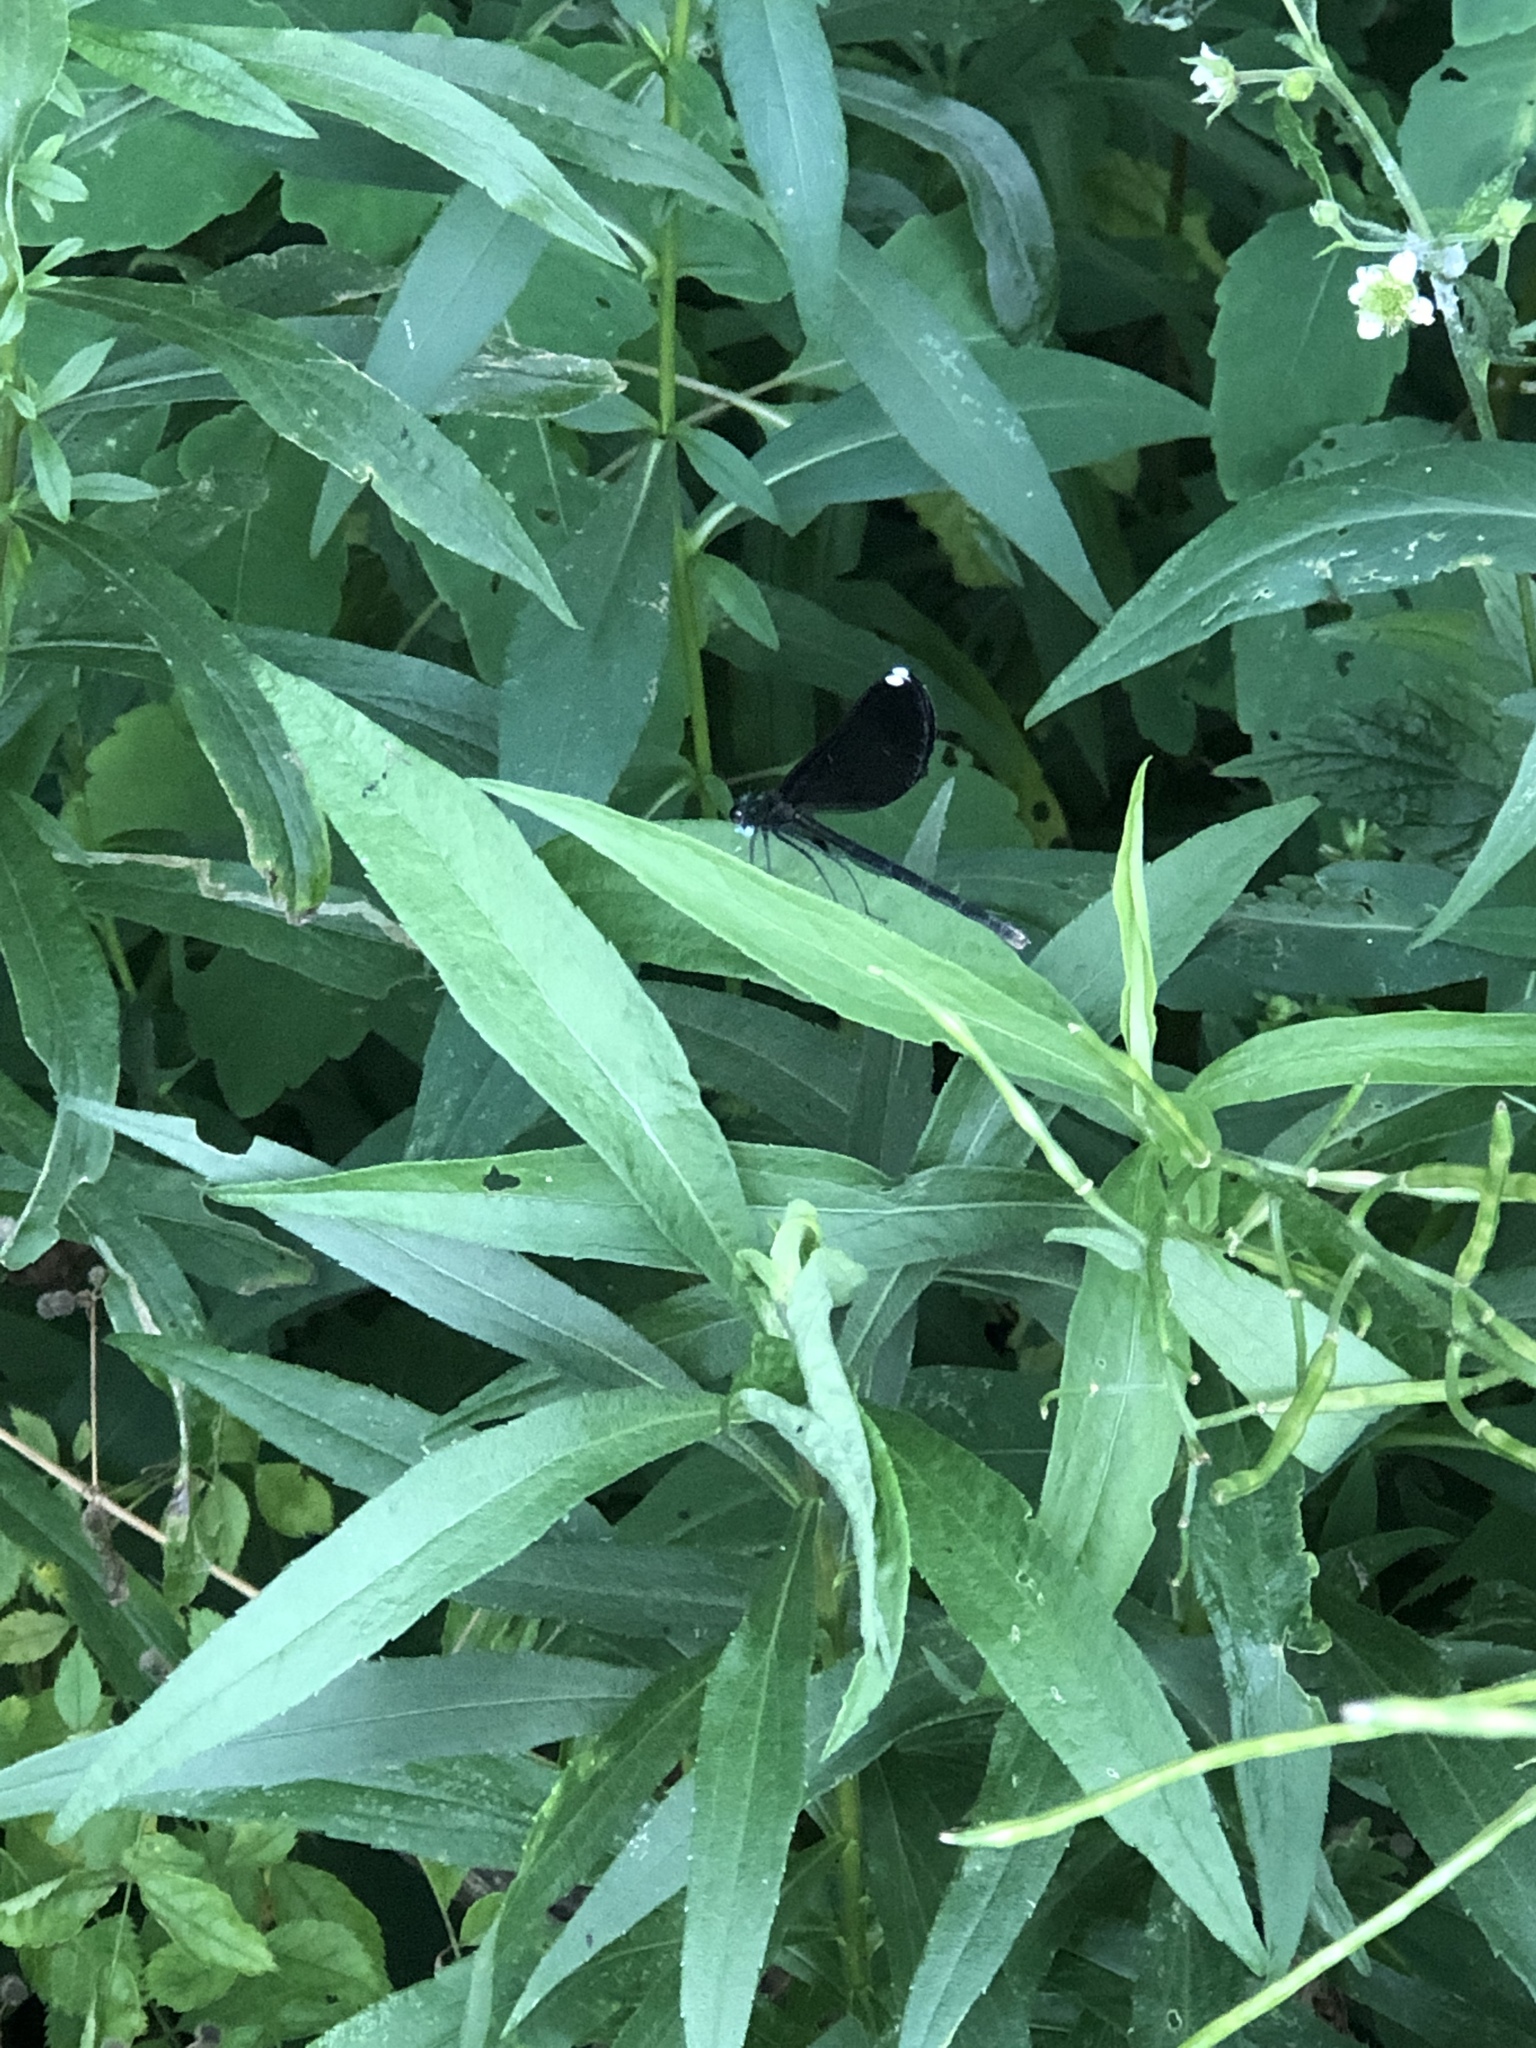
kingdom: Animalia
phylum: Arthropoda
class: Insecta
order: Odonata
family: Calopterygidae
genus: Calopteryx
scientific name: Calopteryx maculata
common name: Ebony jewelwing
